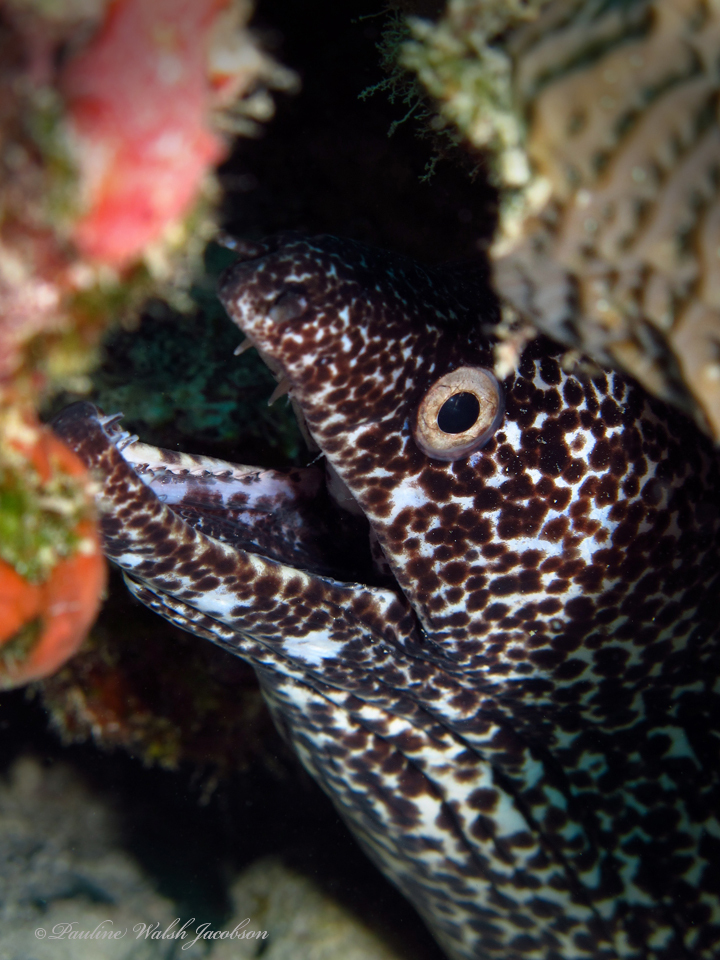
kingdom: Animalia
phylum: Chordata
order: Anguilliformes
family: Muraenidae
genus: Gymnothorax
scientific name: Gymnothorax moringa
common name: Spotted moray
